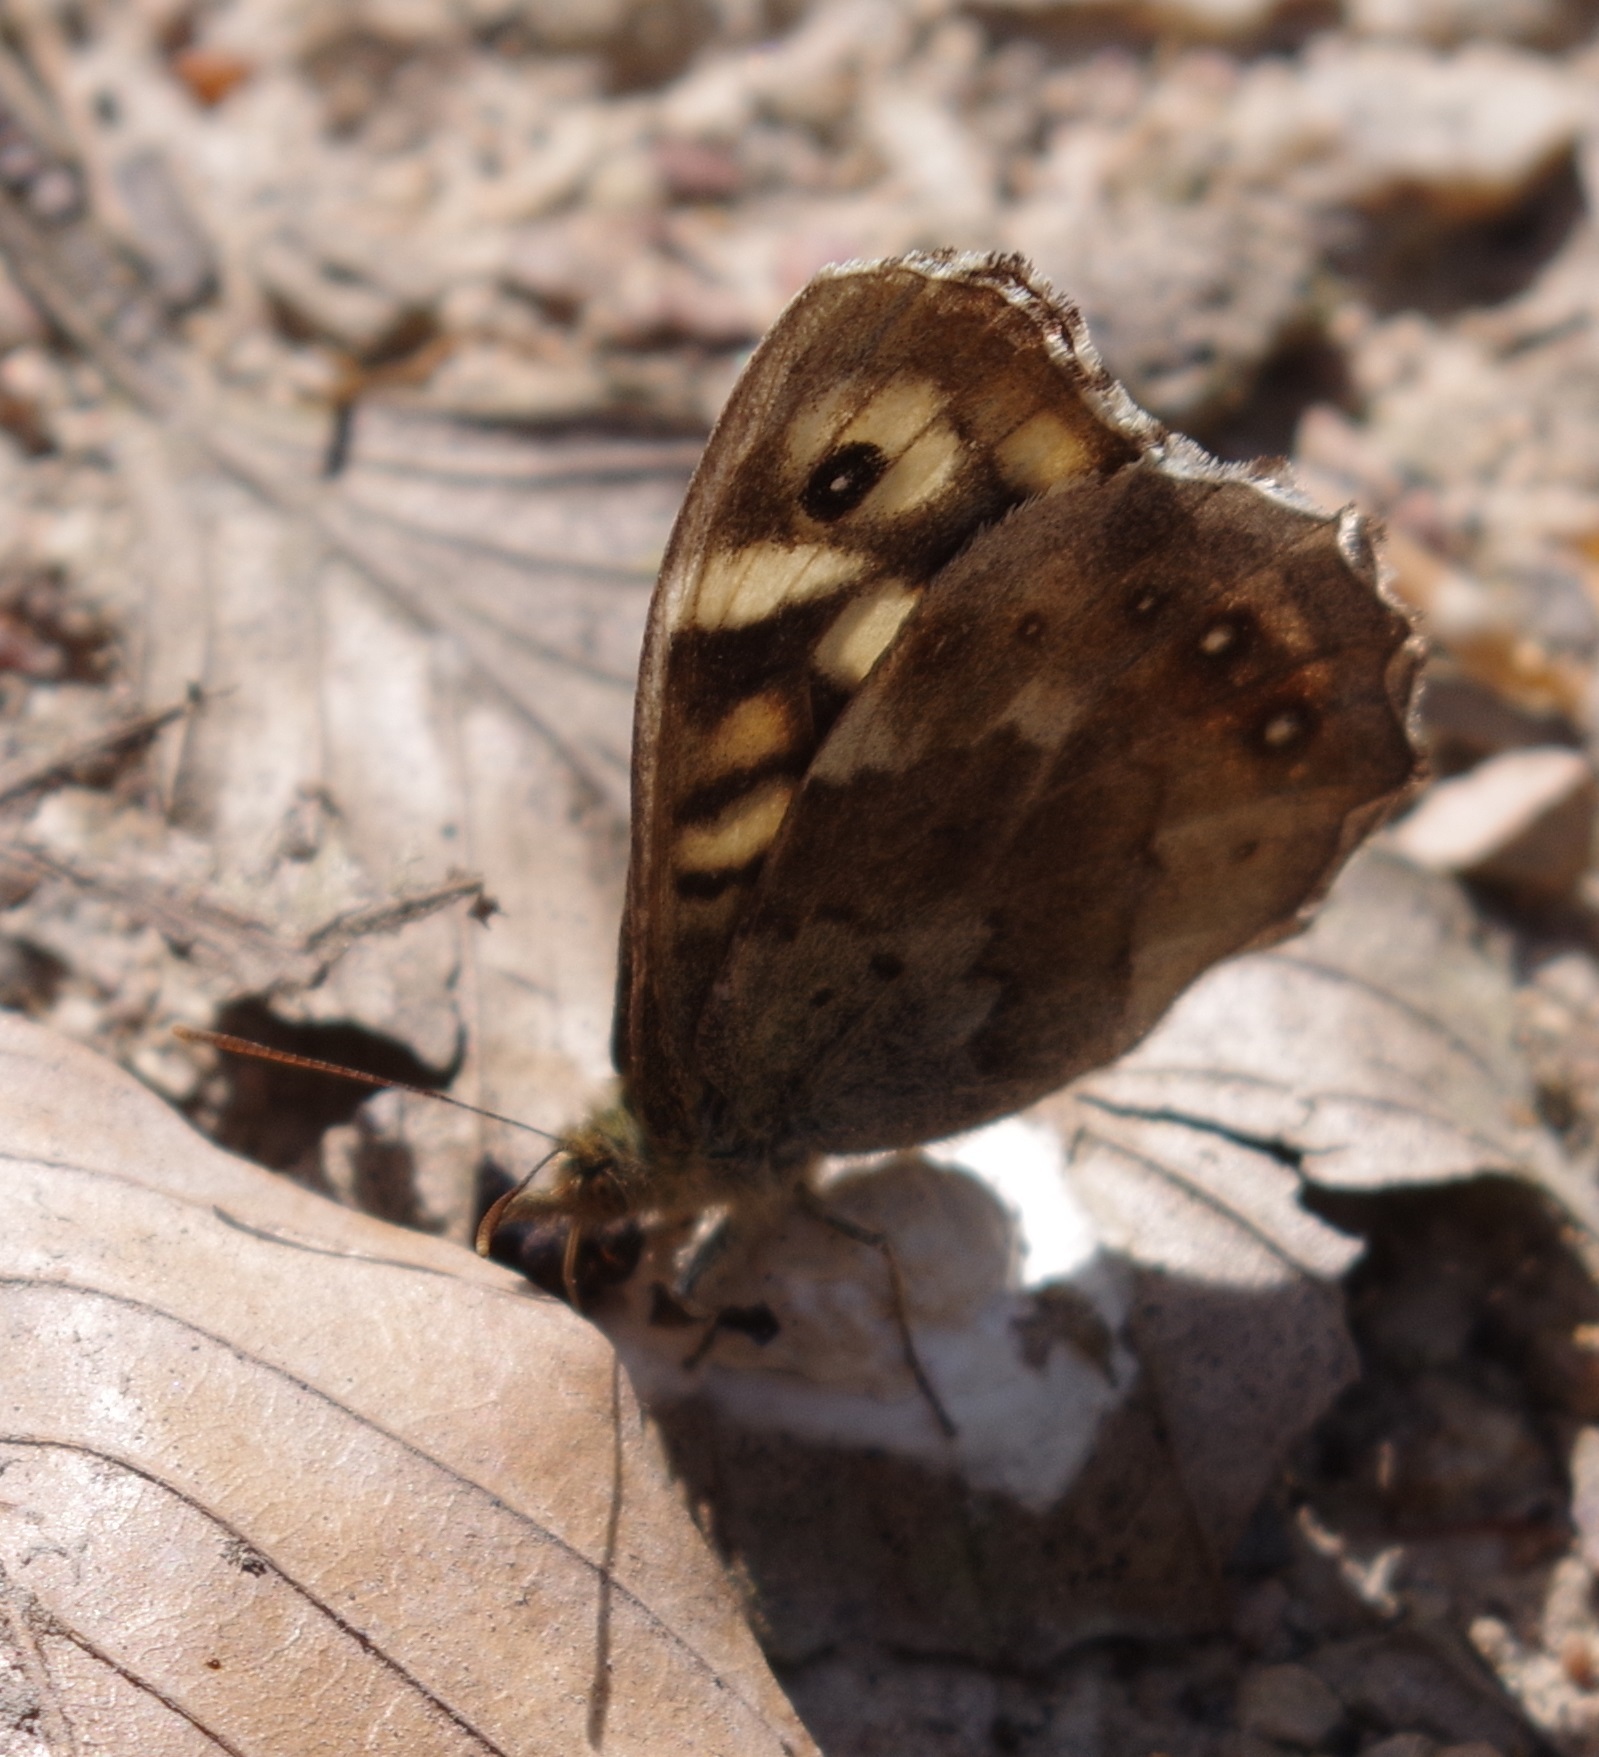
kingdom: Animalia
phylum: Arthropoda
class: Insecta
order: Lepidoptera
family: Nymphalidae
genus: Pararge
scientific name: Pararge aegeria
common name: Speckled wood
